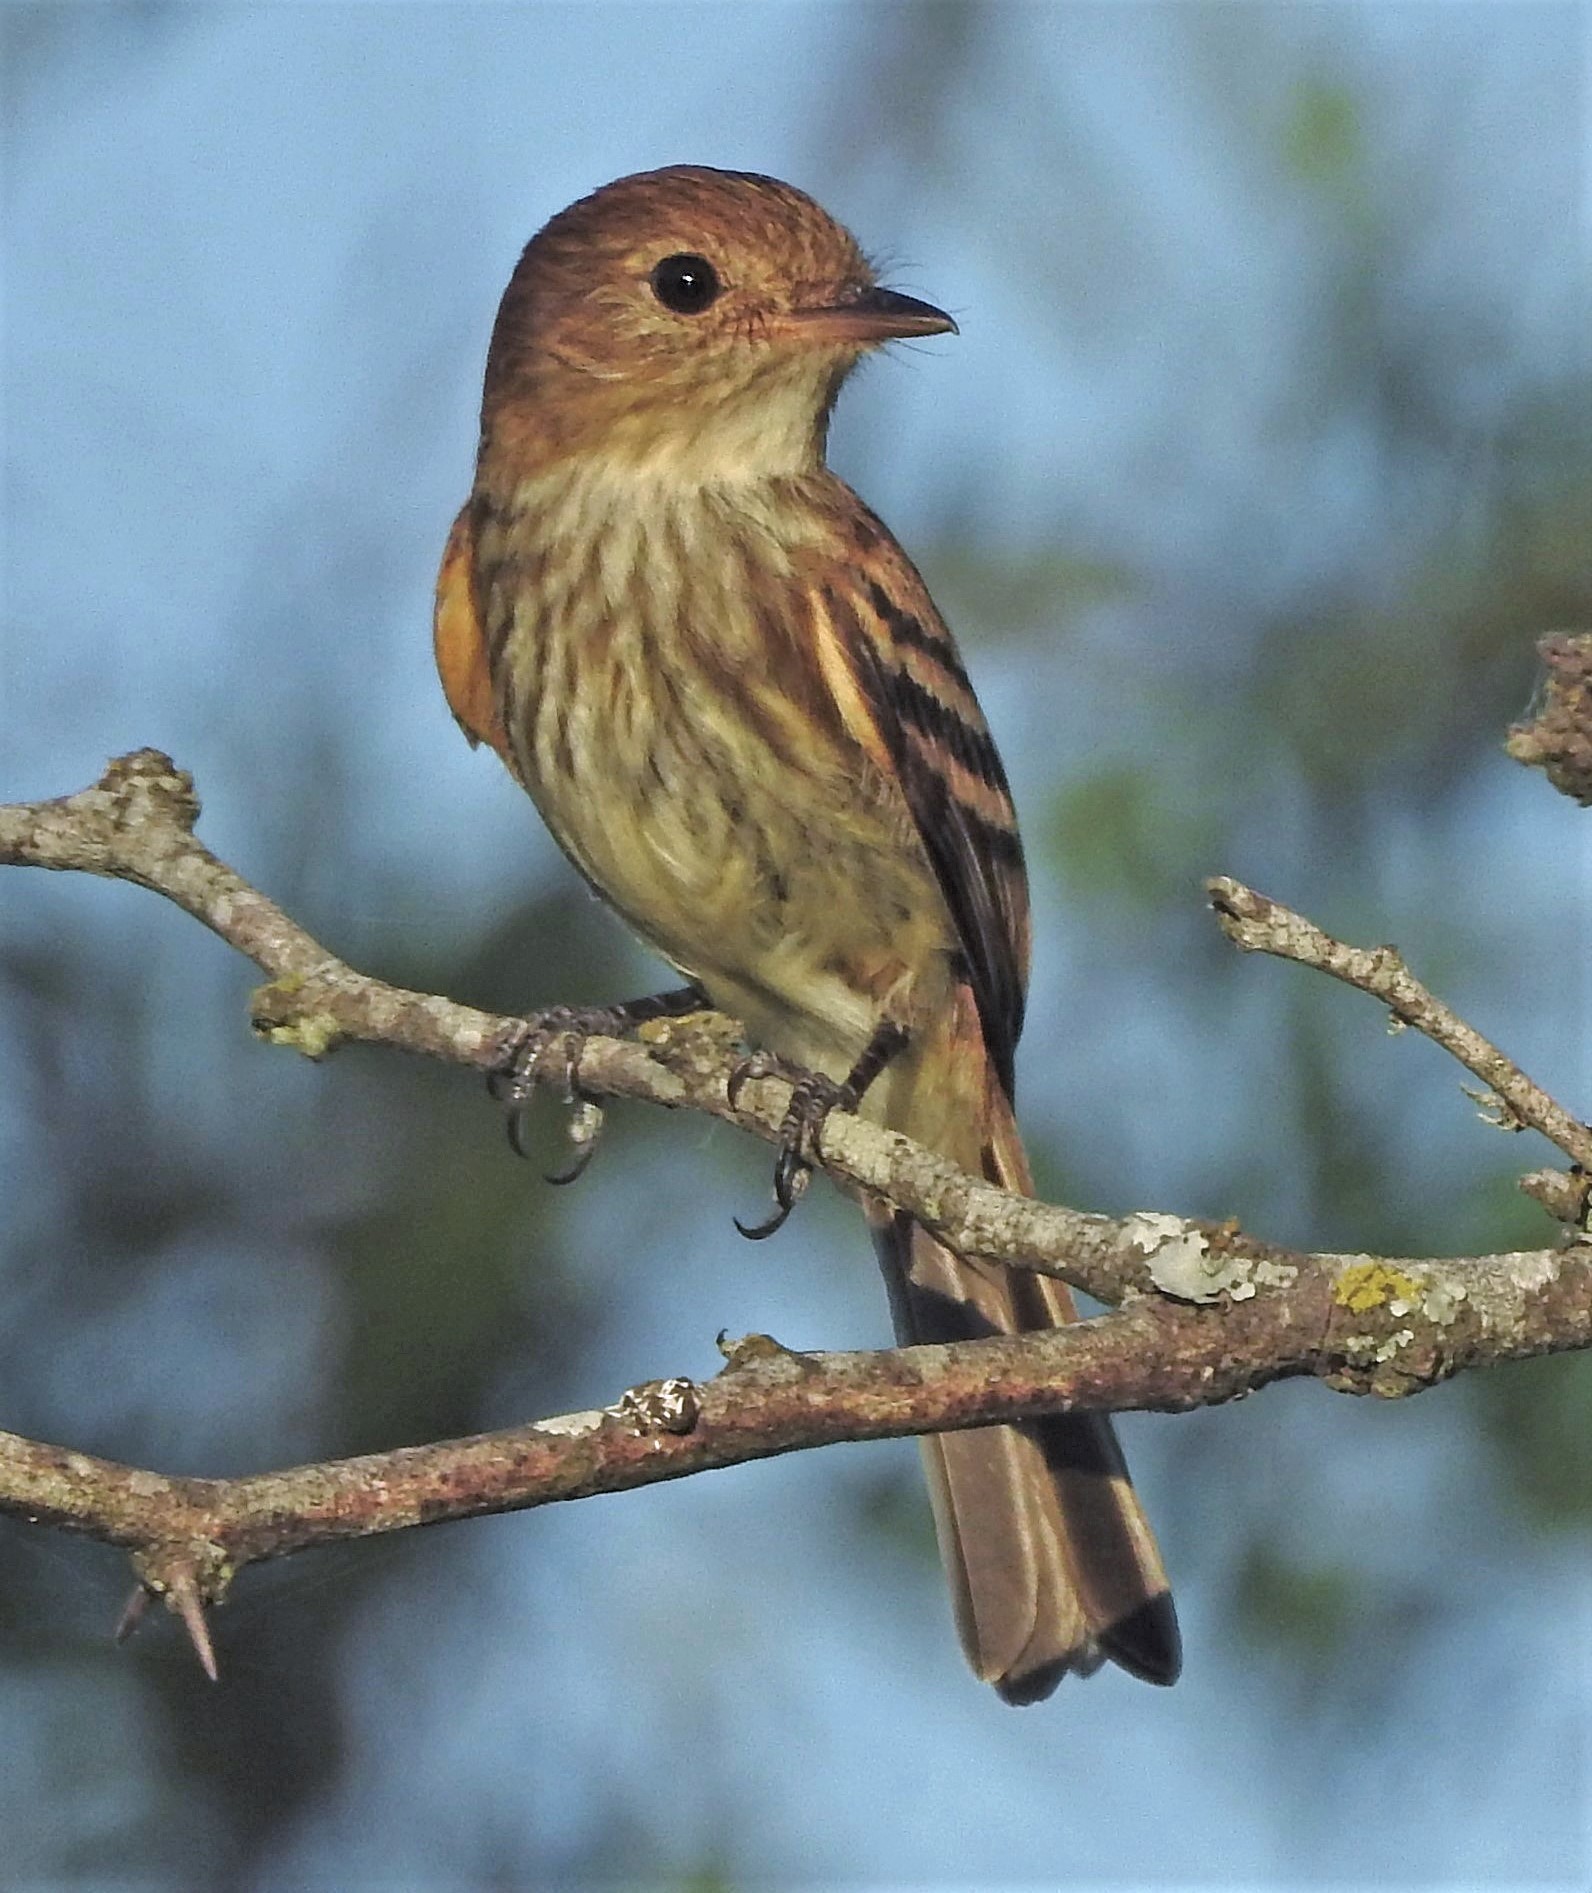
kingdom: Animalia
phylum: Chordata
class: Aves
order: Passeriformes
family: Tyrannidae
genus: Myiophobus
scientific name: Myiophobus fasciatus
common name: Bran-colored flycatcher
